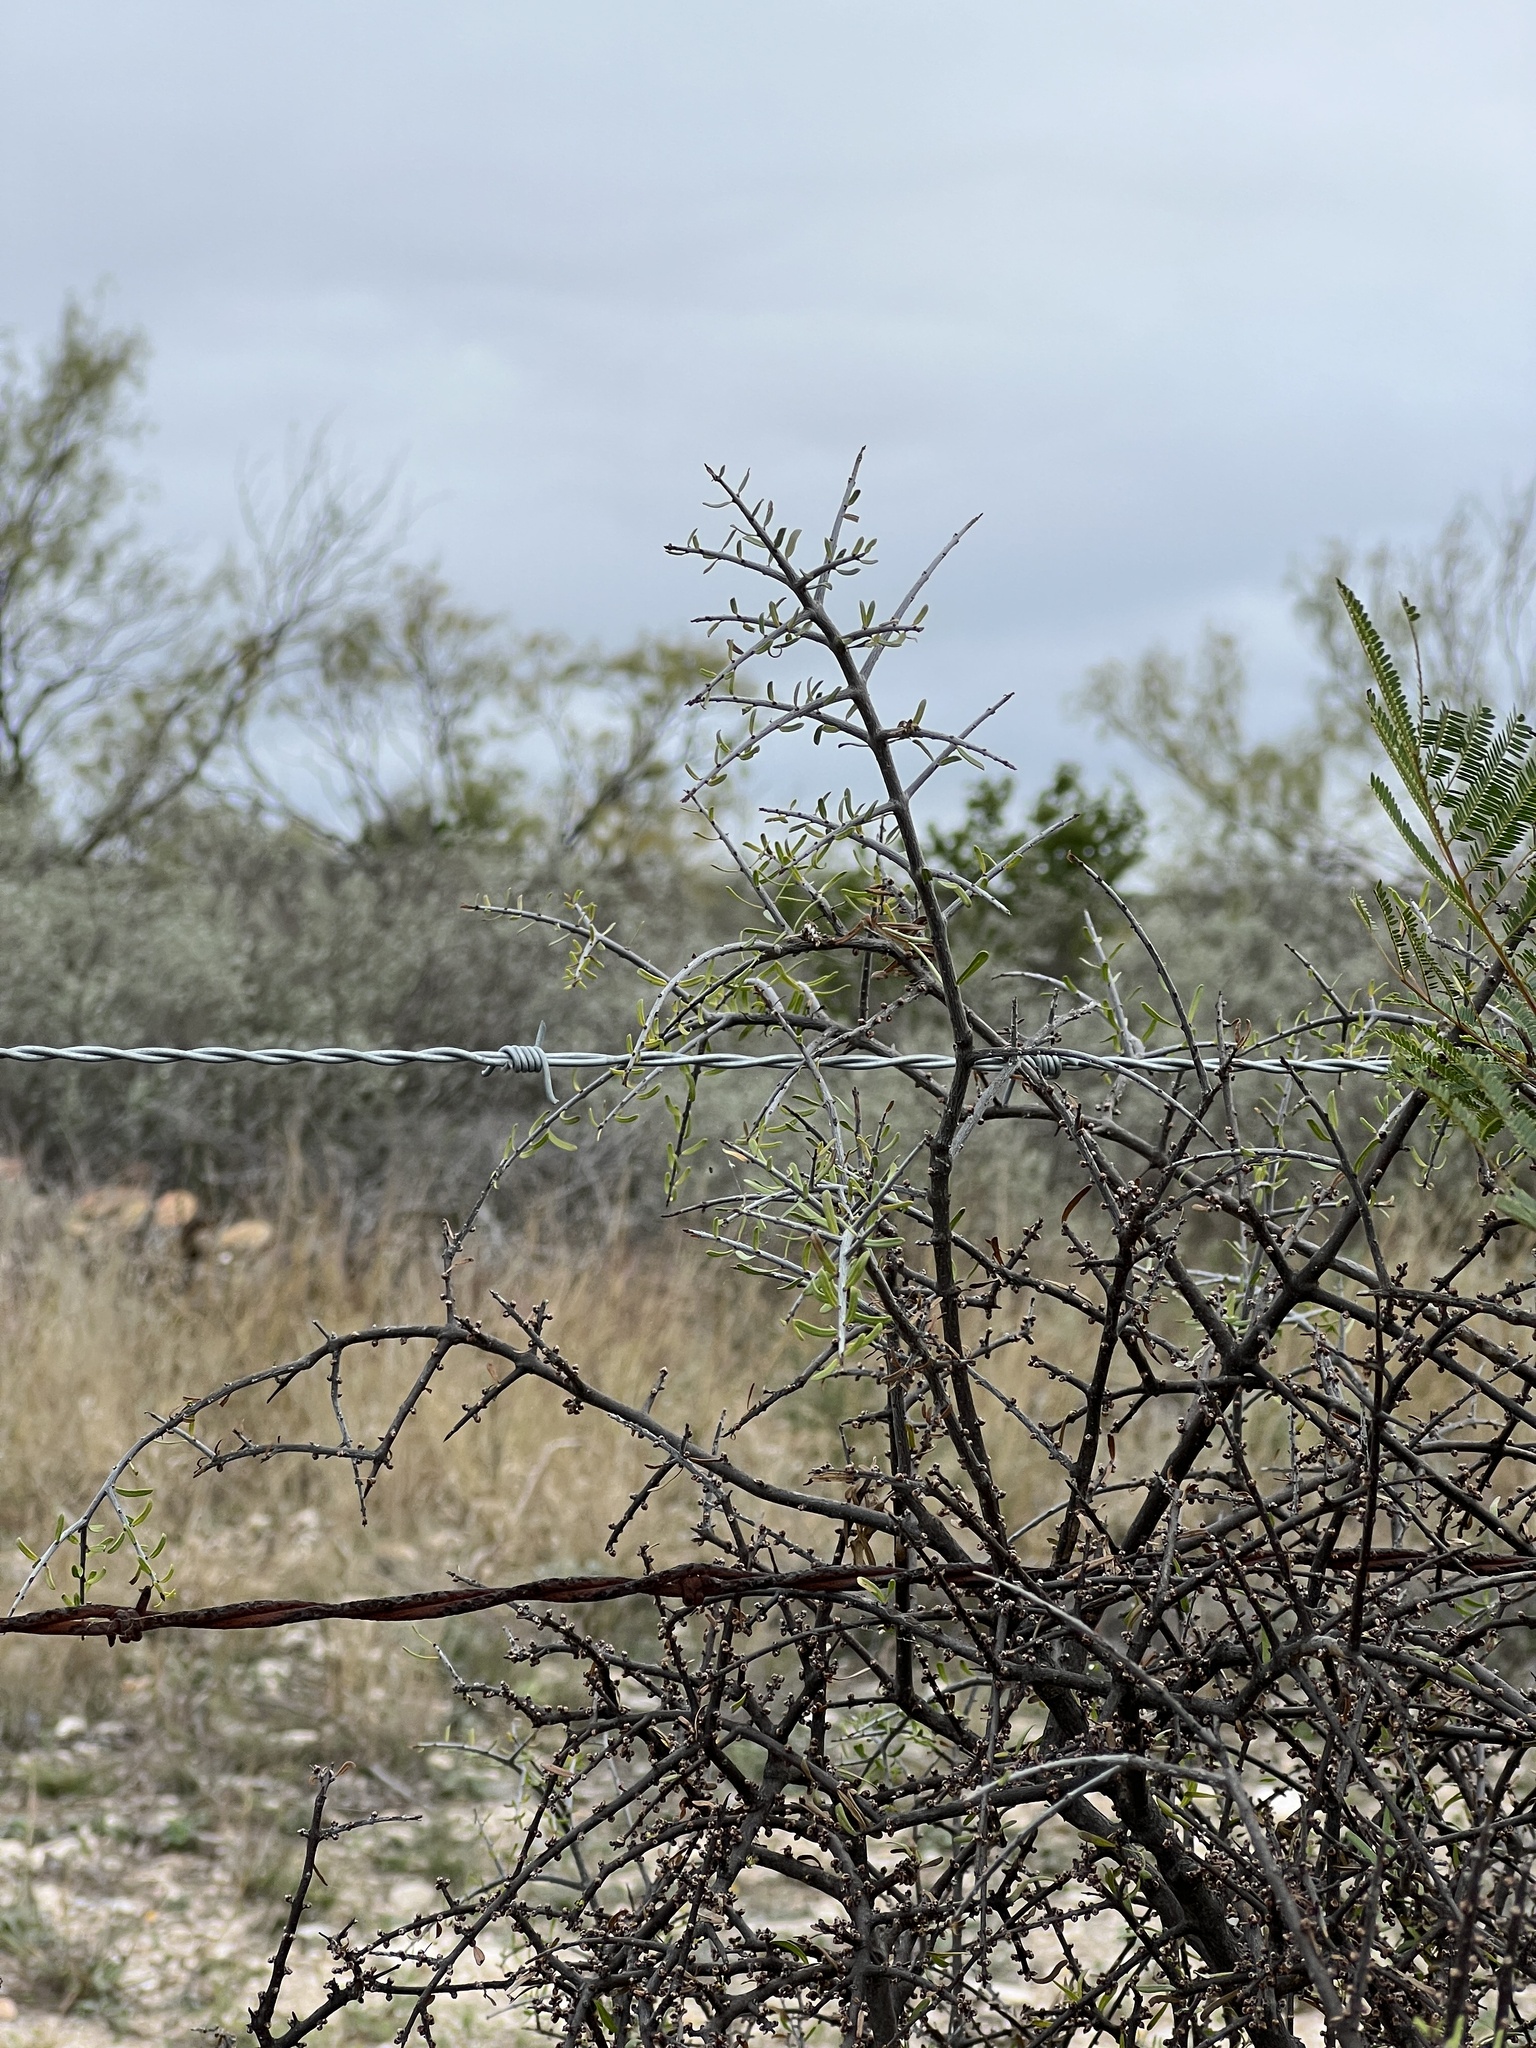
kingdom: Plantae
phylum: Tracheophyta
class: Magnoliopsida
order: Lamiales
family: Oleaceae
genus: Forestiera
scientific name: Forestiera angustifolia
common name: Elbowbush
